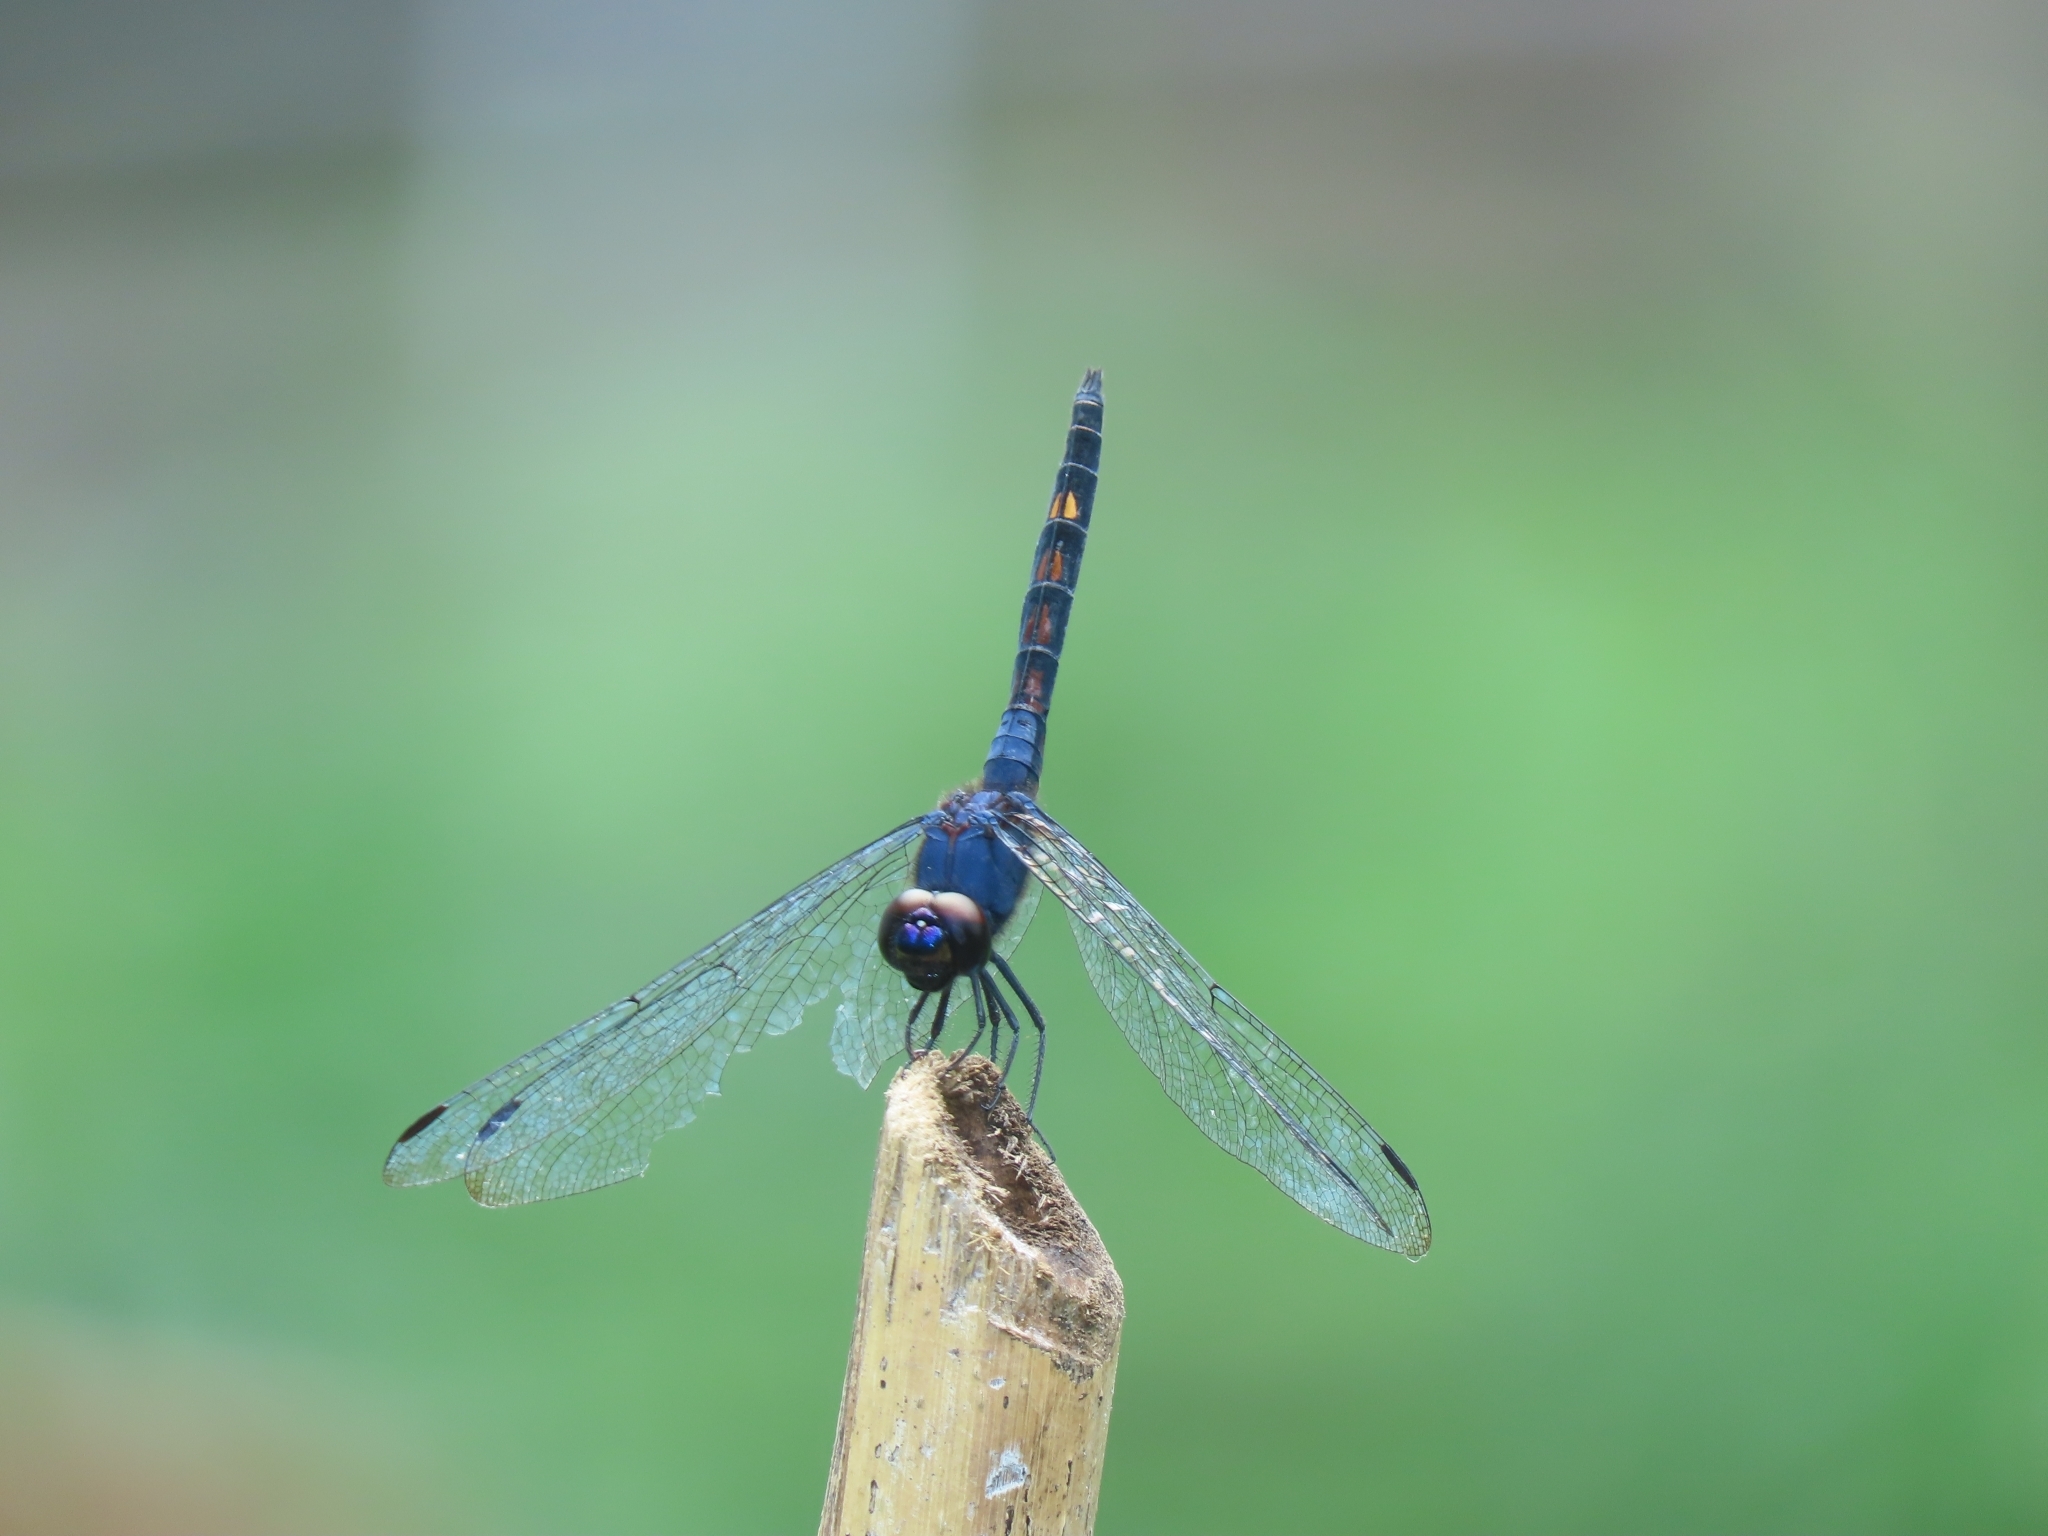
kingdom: Animalia
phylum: Arthropoda
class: Insecta
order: Odonata
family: Libellulidae
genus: Trithemis
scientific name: Trithemis festiva
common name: Indigo dropwing
